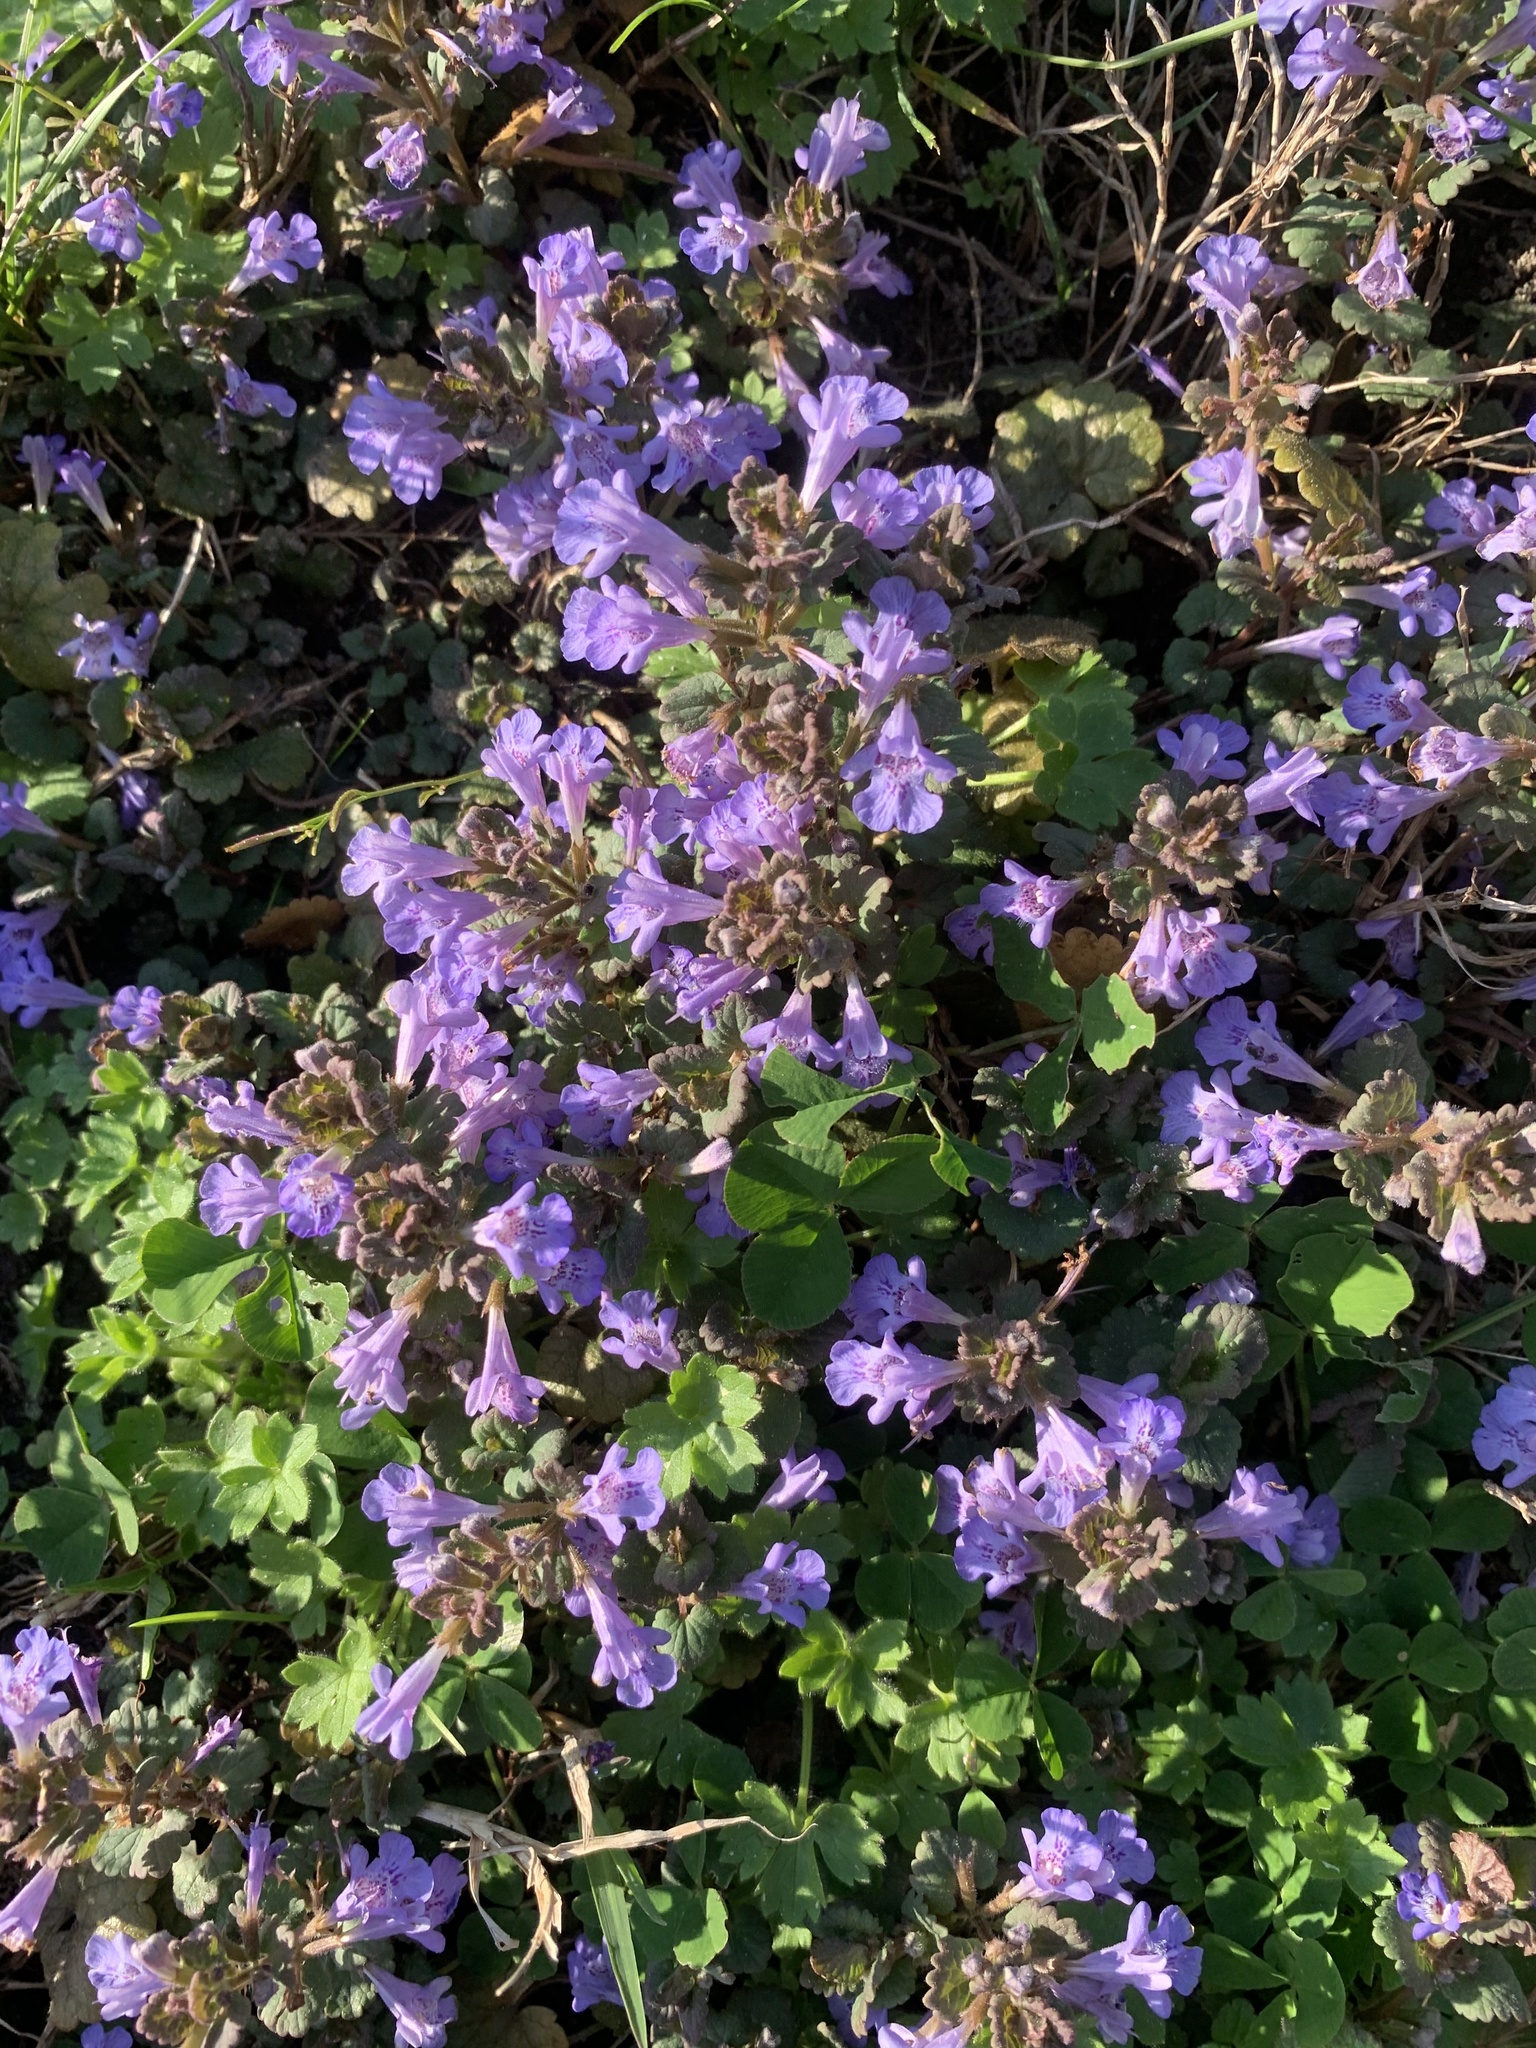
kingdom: Plantae
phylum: Tracheophyta
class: Magnoliopsida
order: Lamiales
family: Lamiaceae
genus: Glechoma
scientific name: Glechoma hederacea
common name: Ground ivy
